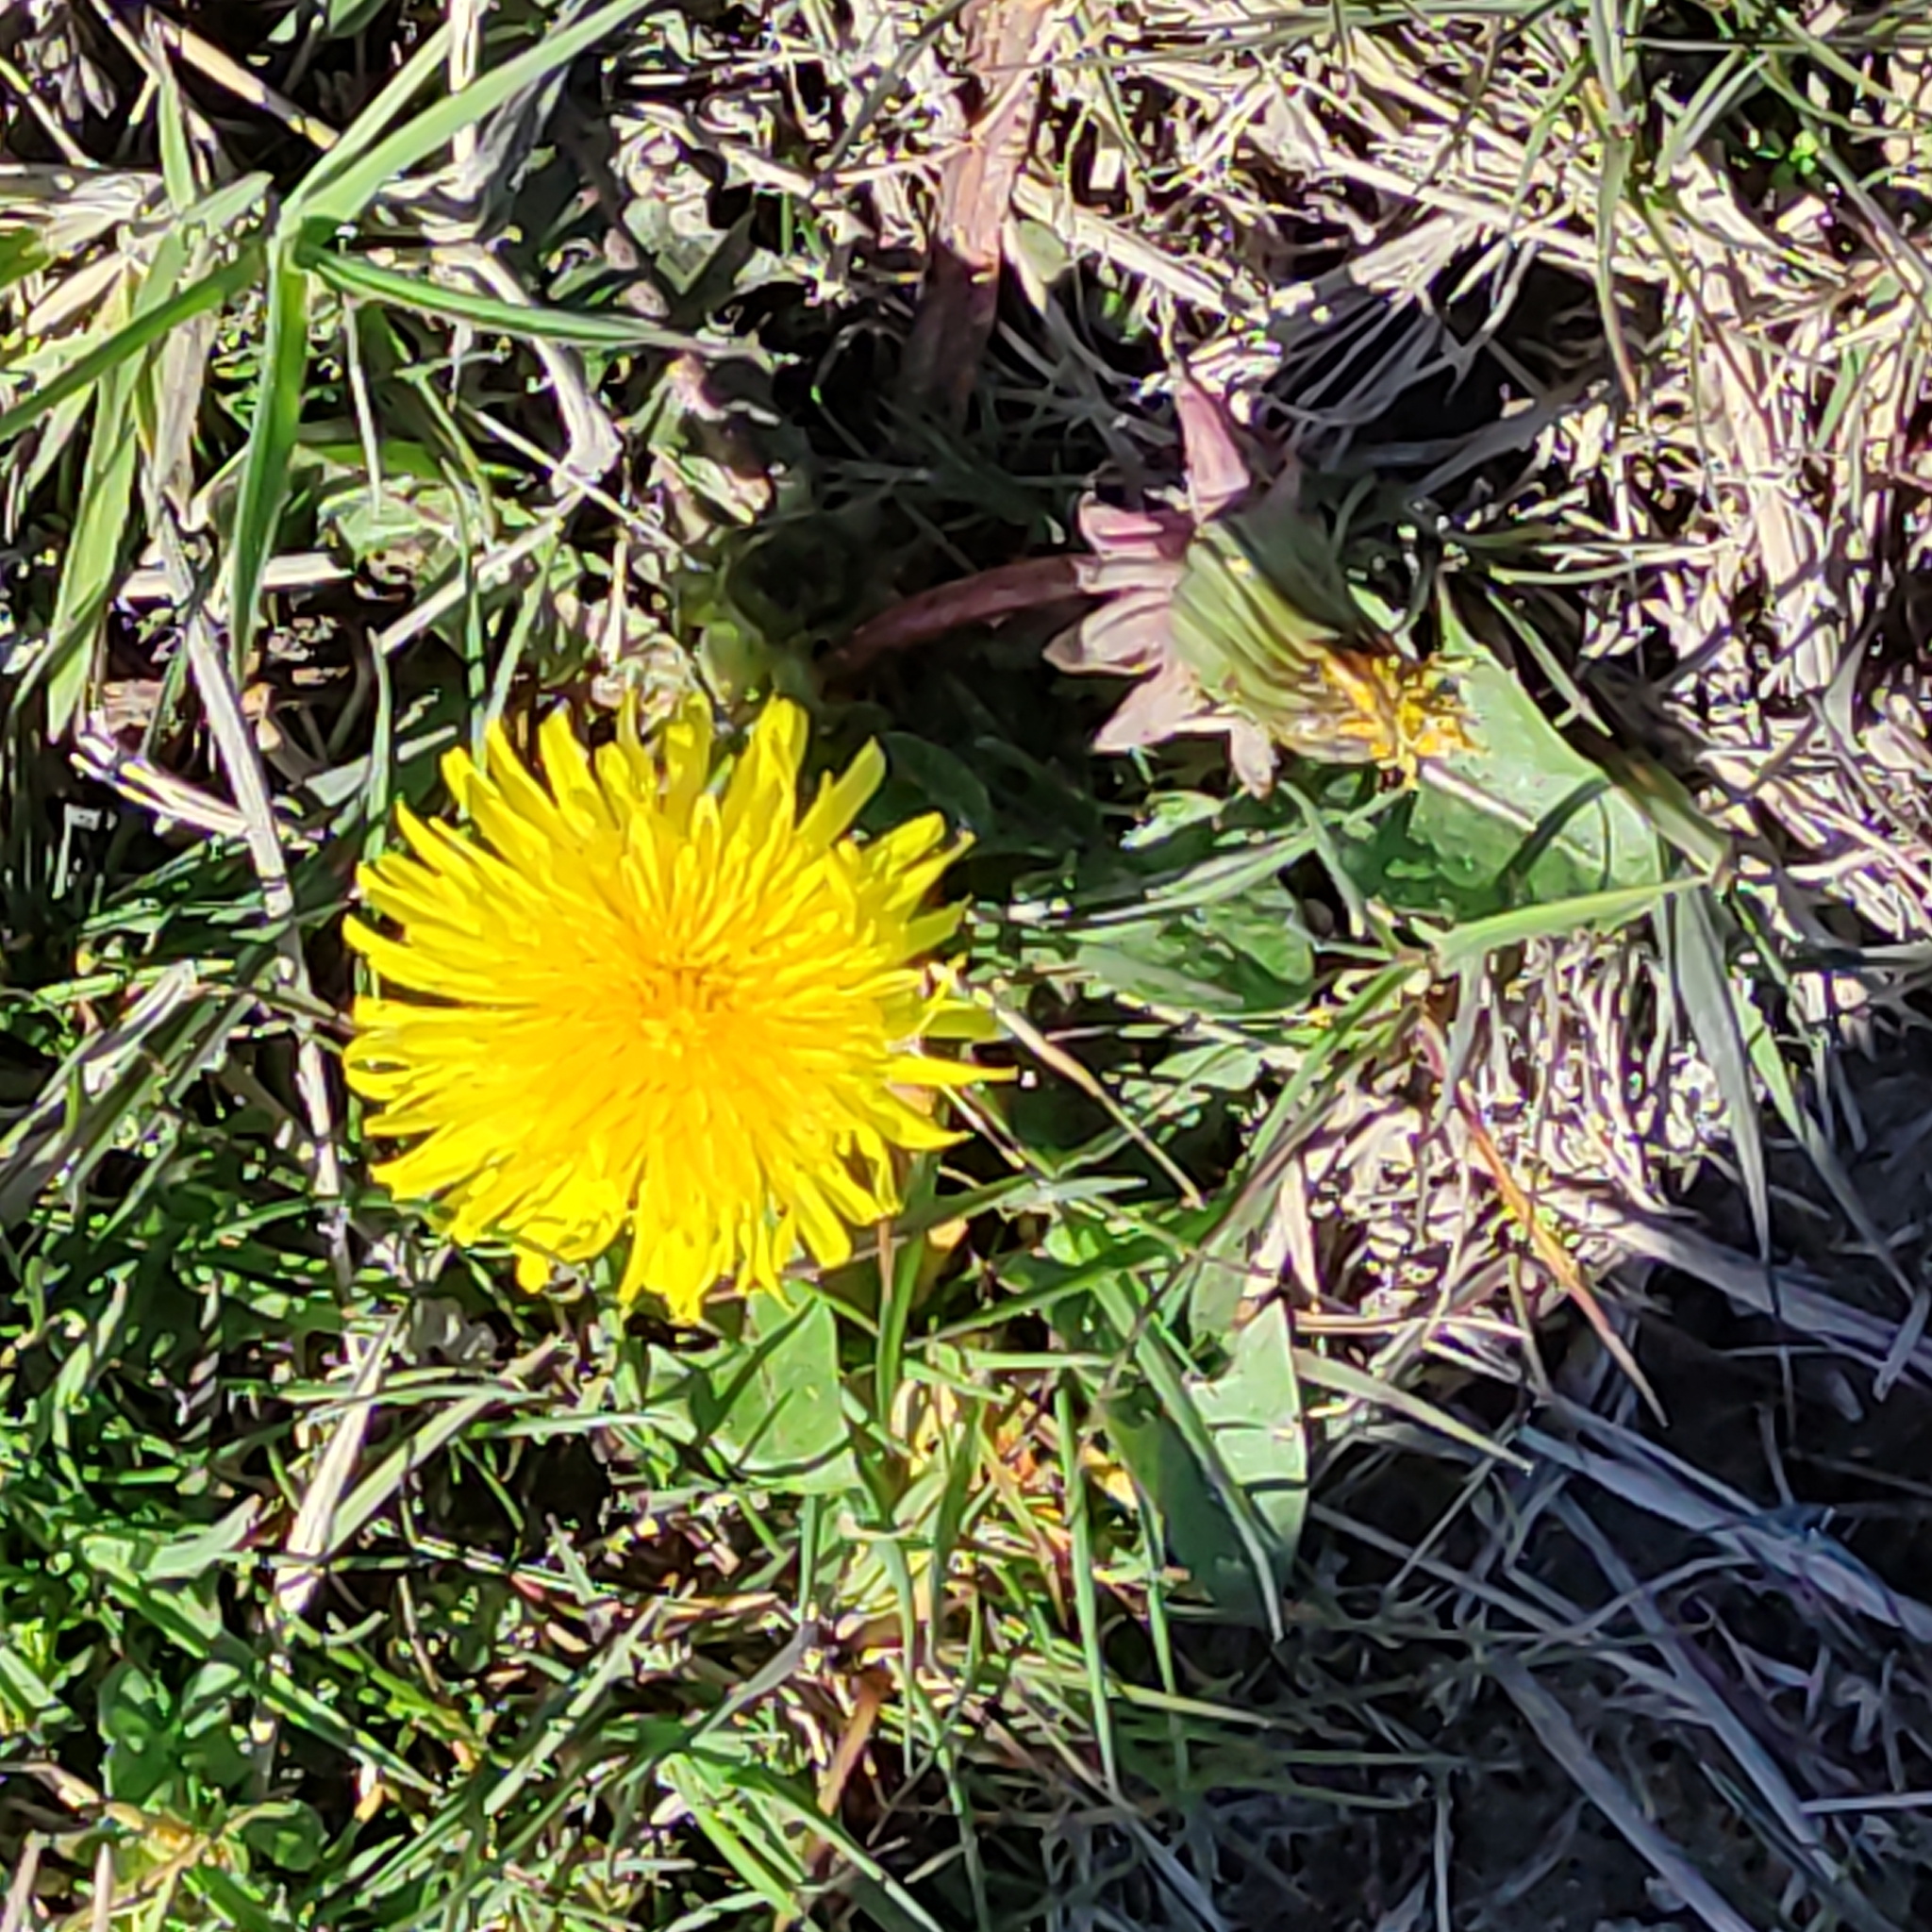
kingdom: Plantae
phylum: Tracheophyta
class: Magnoliopsida
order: Asterales
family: Asteraceae
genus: Taraxacum
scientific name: Taraxacum officinale
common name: Common dandelion
